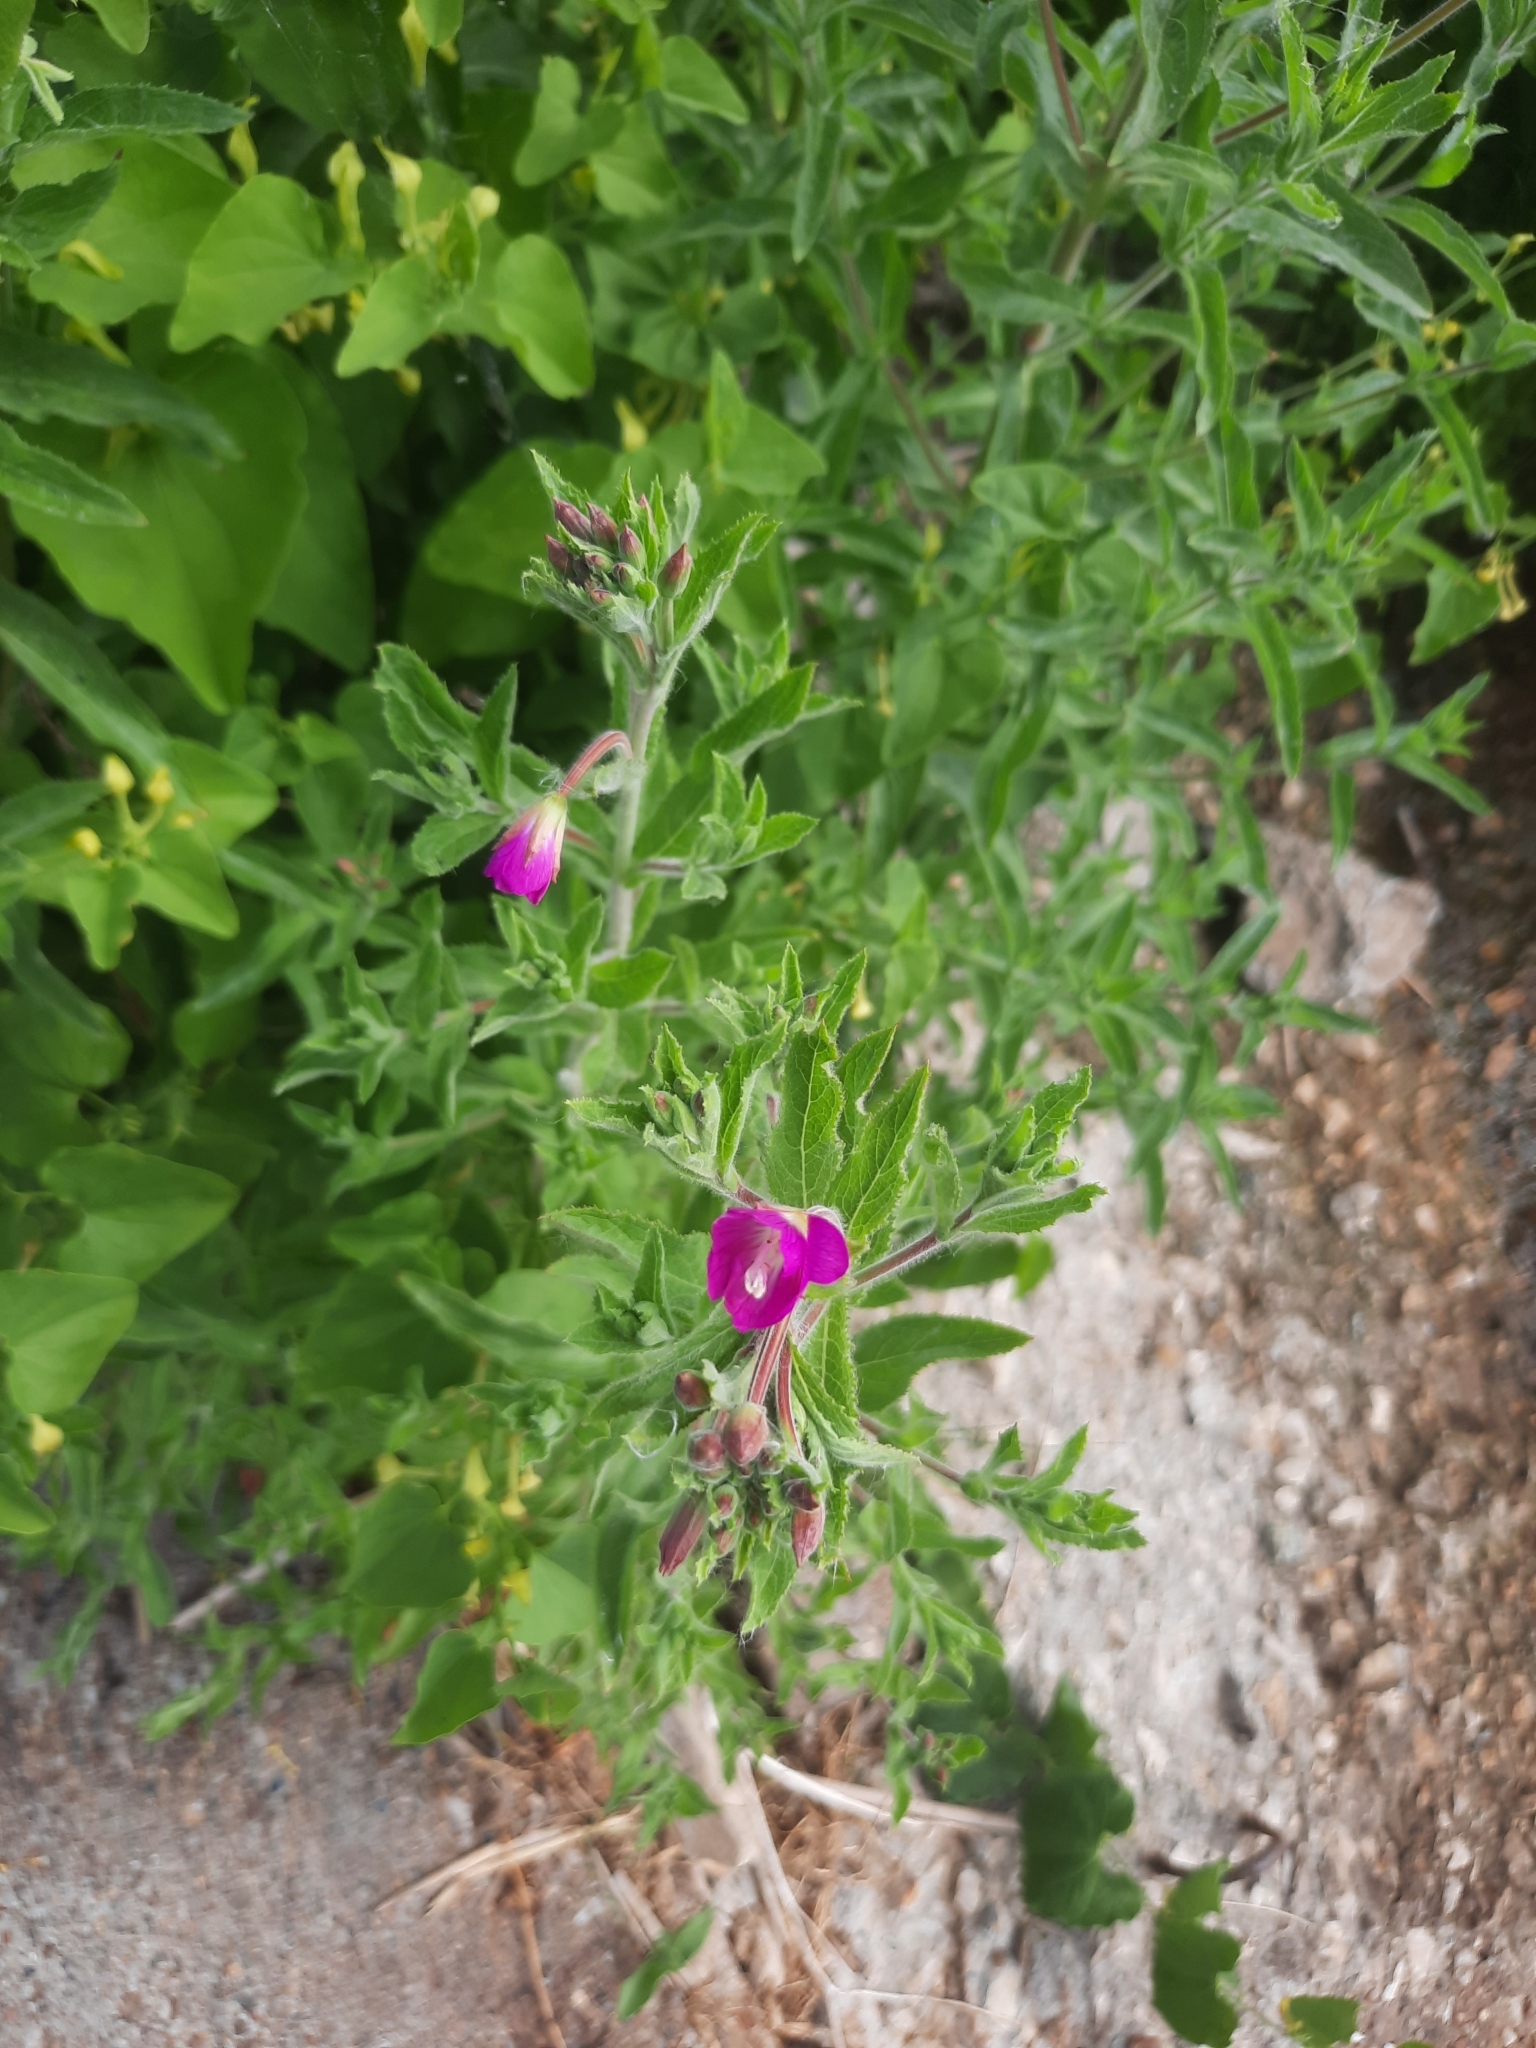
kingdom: Plantae
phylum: Tracheophyta
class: Magnoliopsida
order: Myrtales
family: Onagraceae
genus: Epilobium
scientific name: Epilobium hirsutum
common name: Great willowherb
